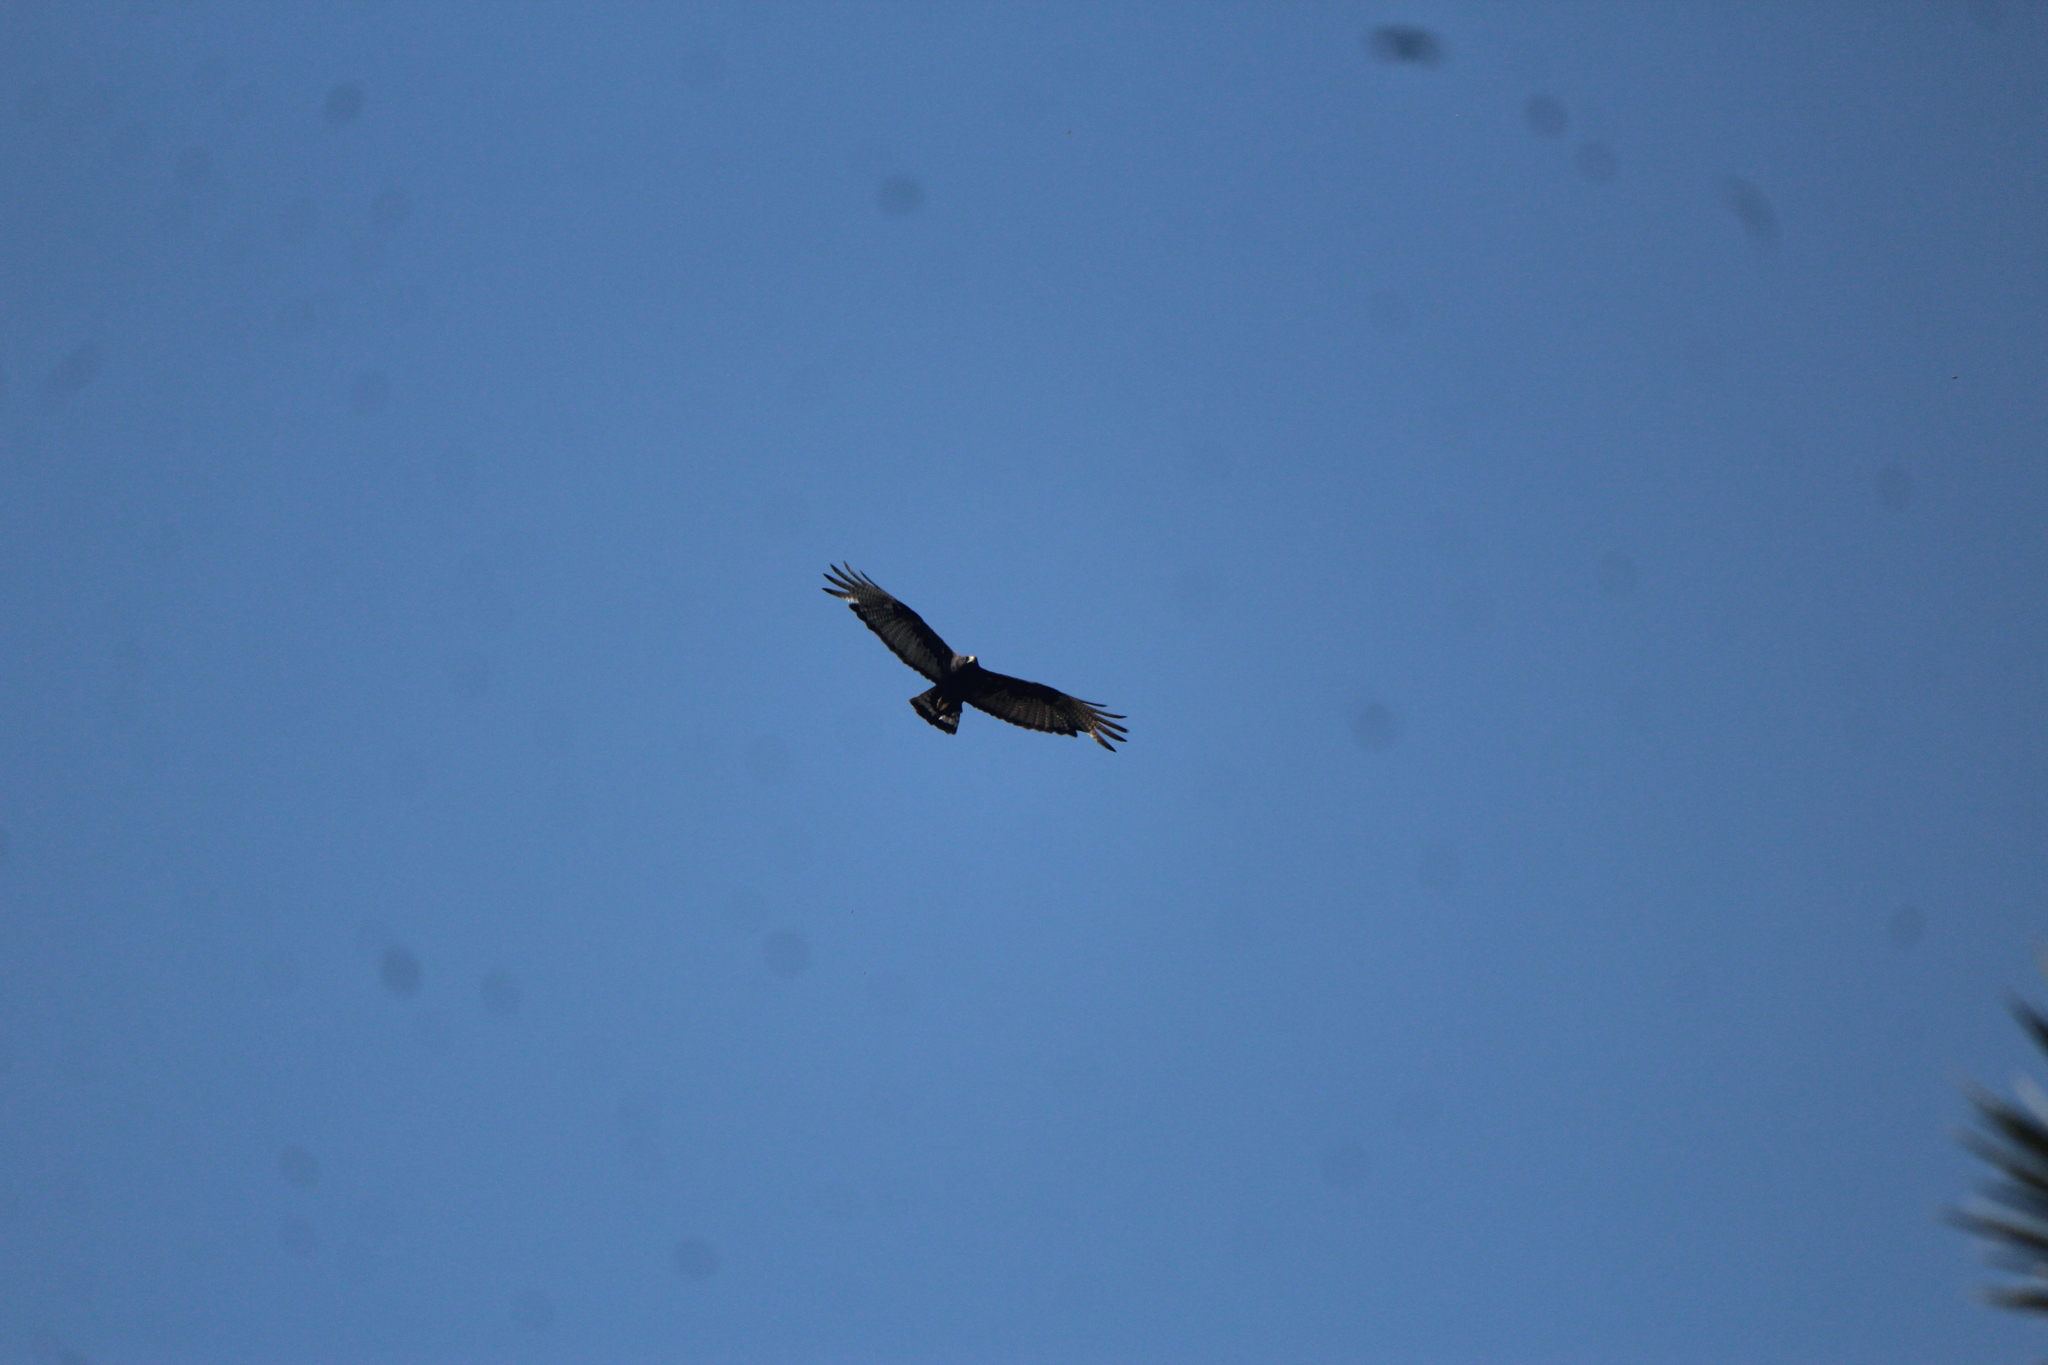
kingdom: Animalia
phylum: Chordata
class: Aves
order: Accipitriformes
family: Accipitridae
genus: Buteo
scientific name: Buteo albonotatus
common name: Zone-tailed hawk
